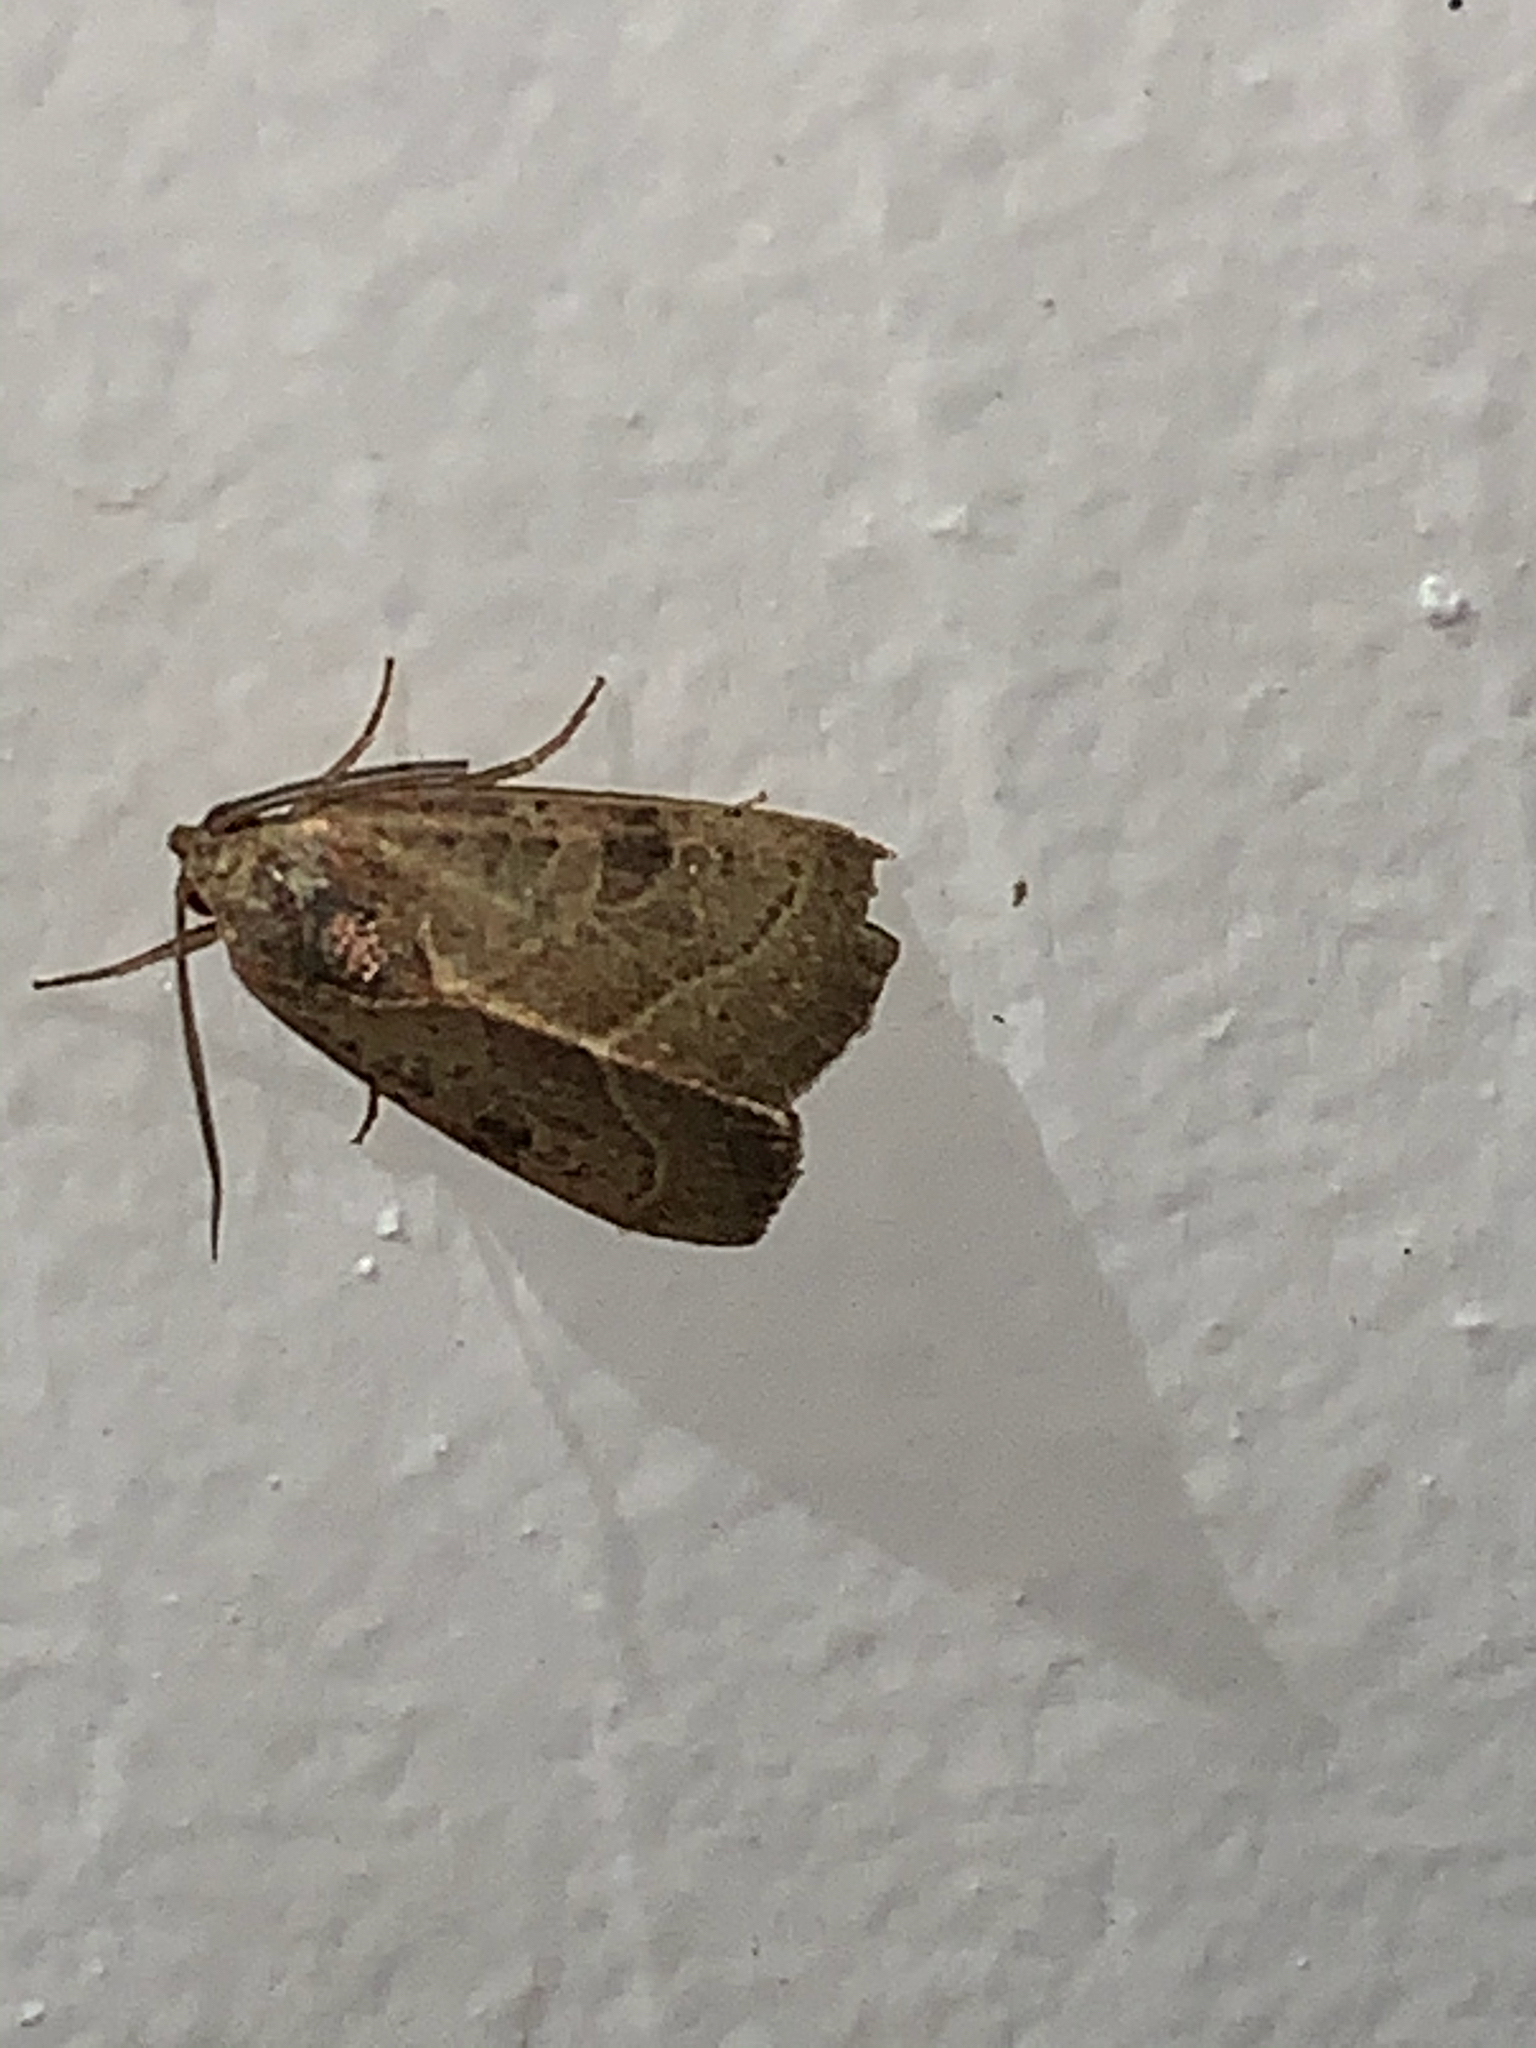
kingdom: Animalia
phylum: Arthropoda
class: Insecta
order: Lepidoptera
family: Noctuidae
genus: Galgula
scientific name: Galgula partita
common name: Wedgeling
